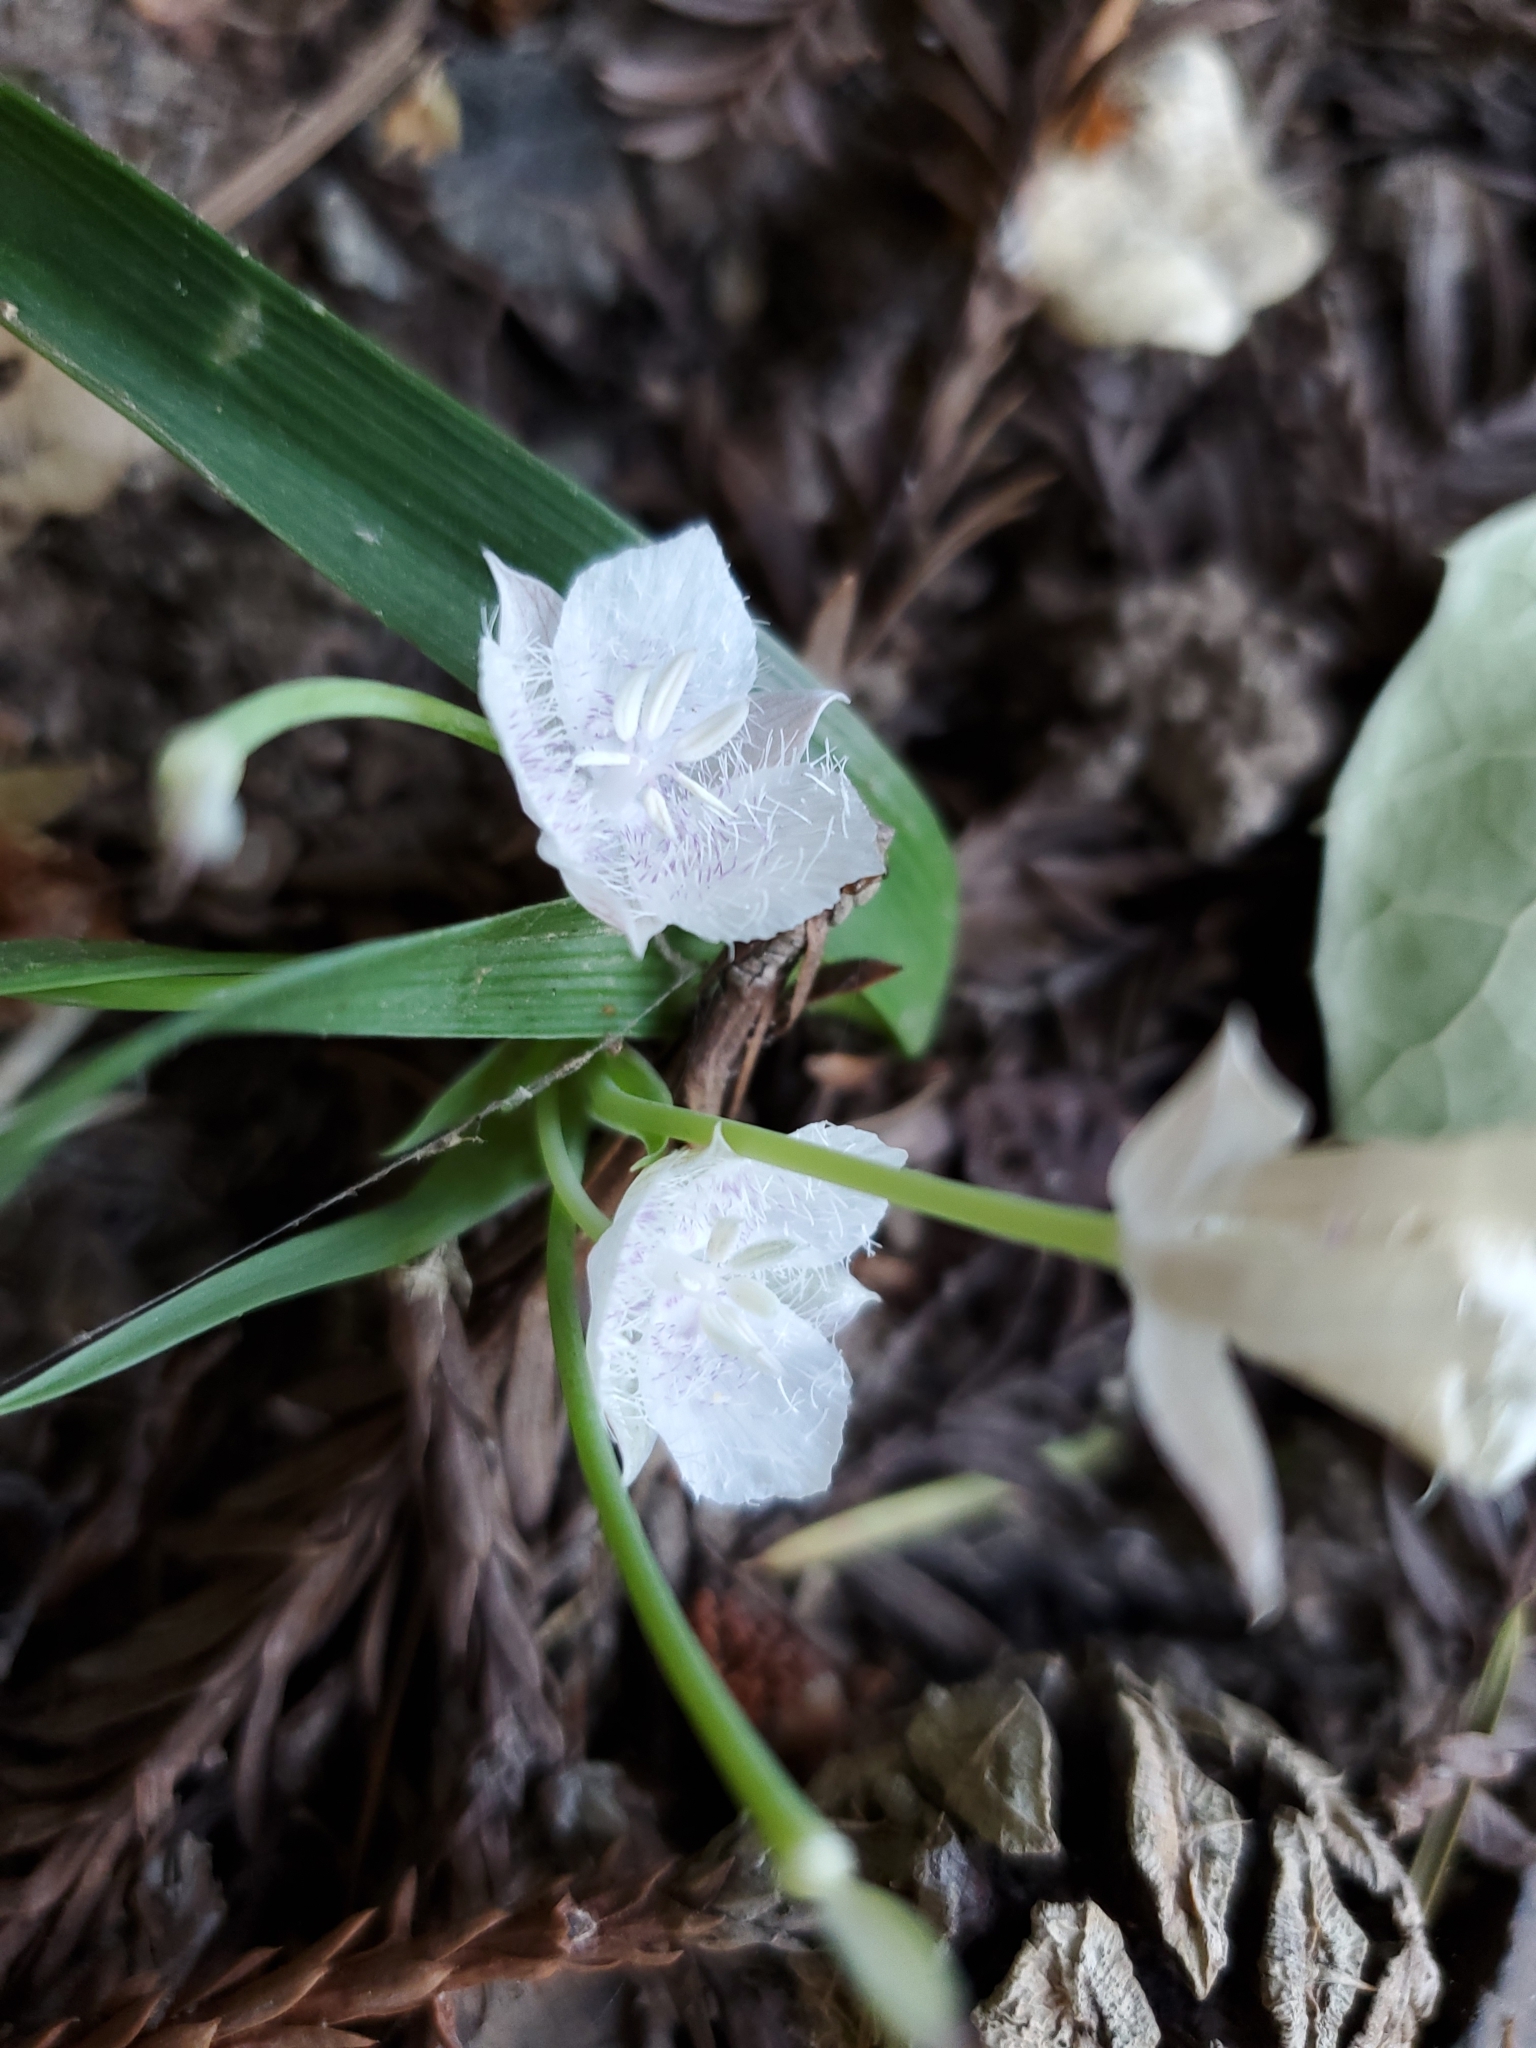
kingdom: Plantae
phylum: Tracheophyta
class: Liliopsida
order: Liliales
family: Liliaceae
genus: Calochortus
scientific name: Calochortus tolmiei
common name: Pussy-ears
